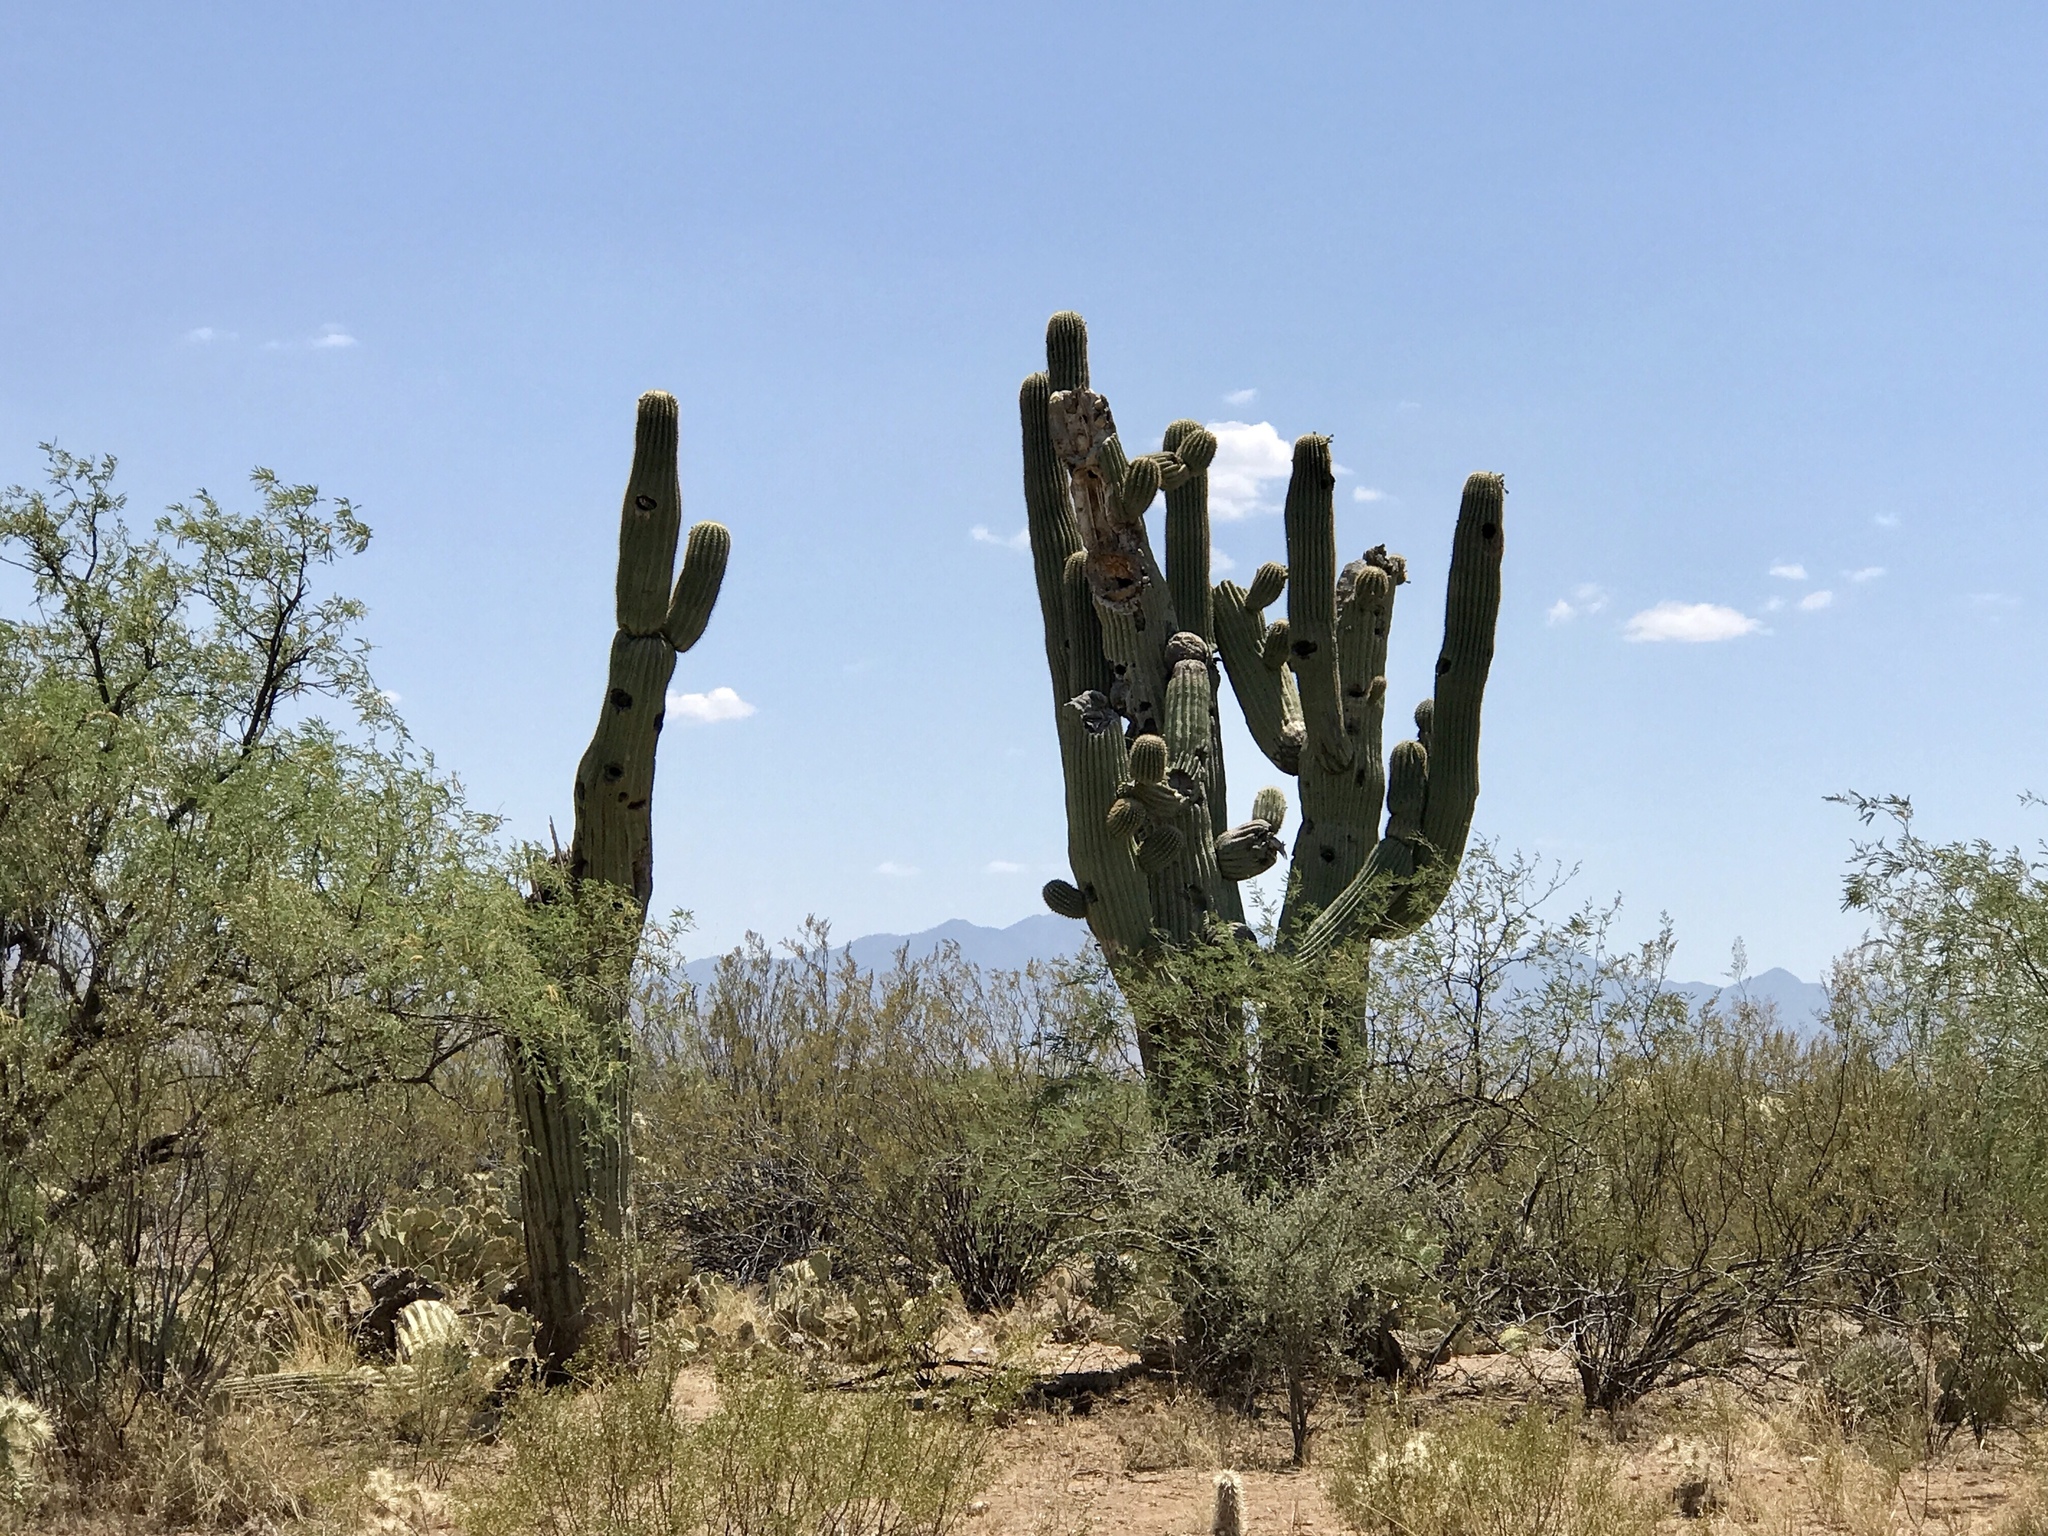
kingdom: Plantae
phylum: Tracheophyta
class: Magnoliopsida
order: Caryophyllales
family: Cactaceae
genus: Carnegiea
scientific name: Carnegiea gigantea
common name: Saguaro
